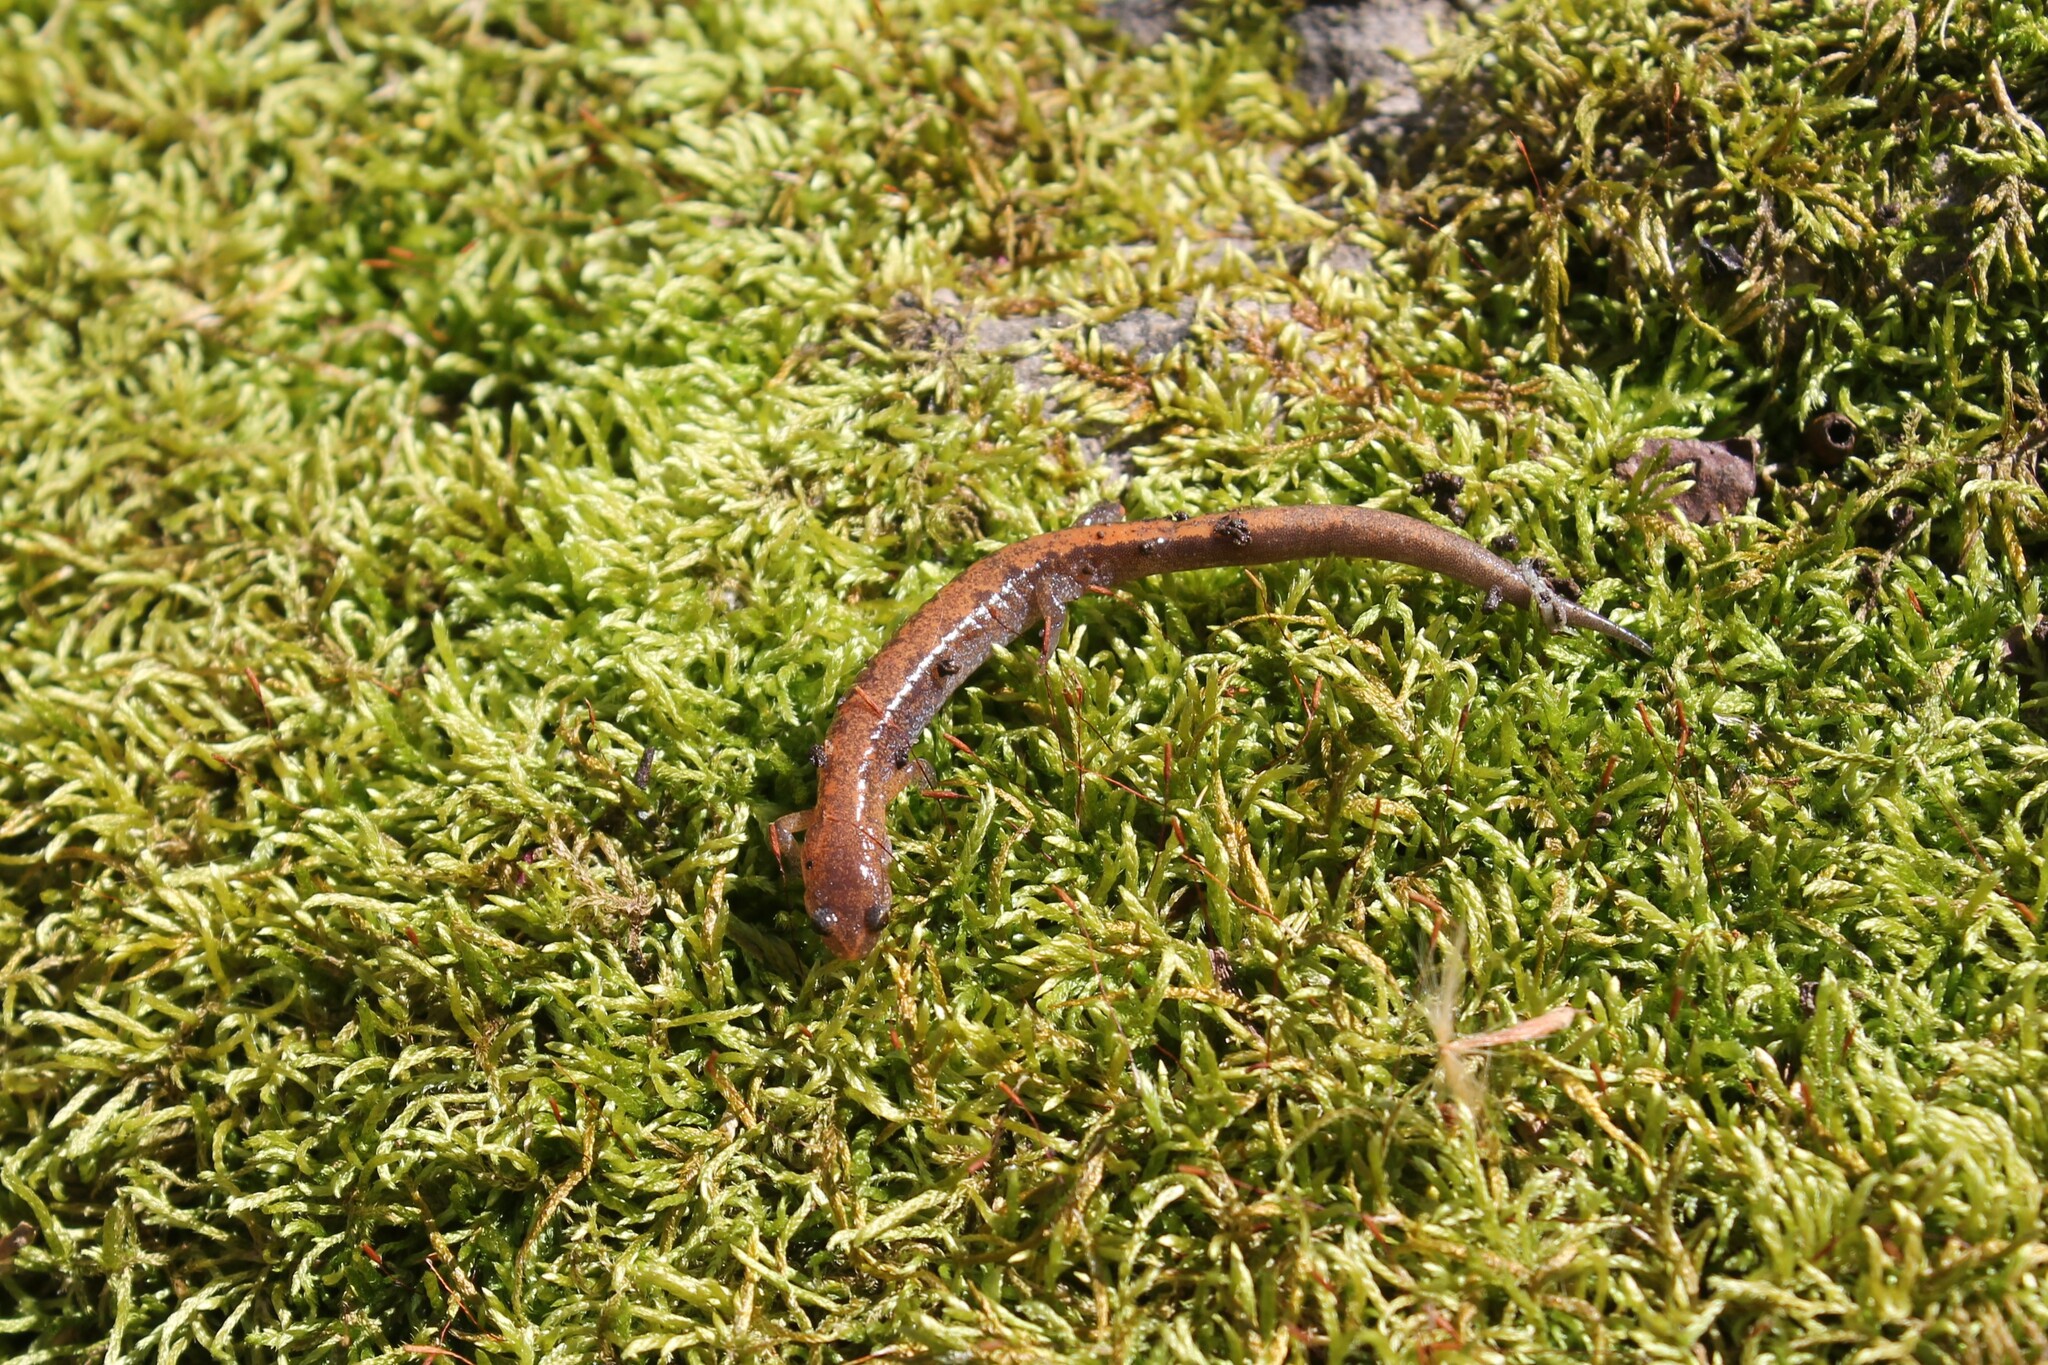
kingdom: Animalia
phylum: Chordata
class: Amphibia
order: Caudata
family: Plethodontidae
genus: Plethodon
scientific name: Plethodon dorsalis
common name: Northern zigzag salamander
